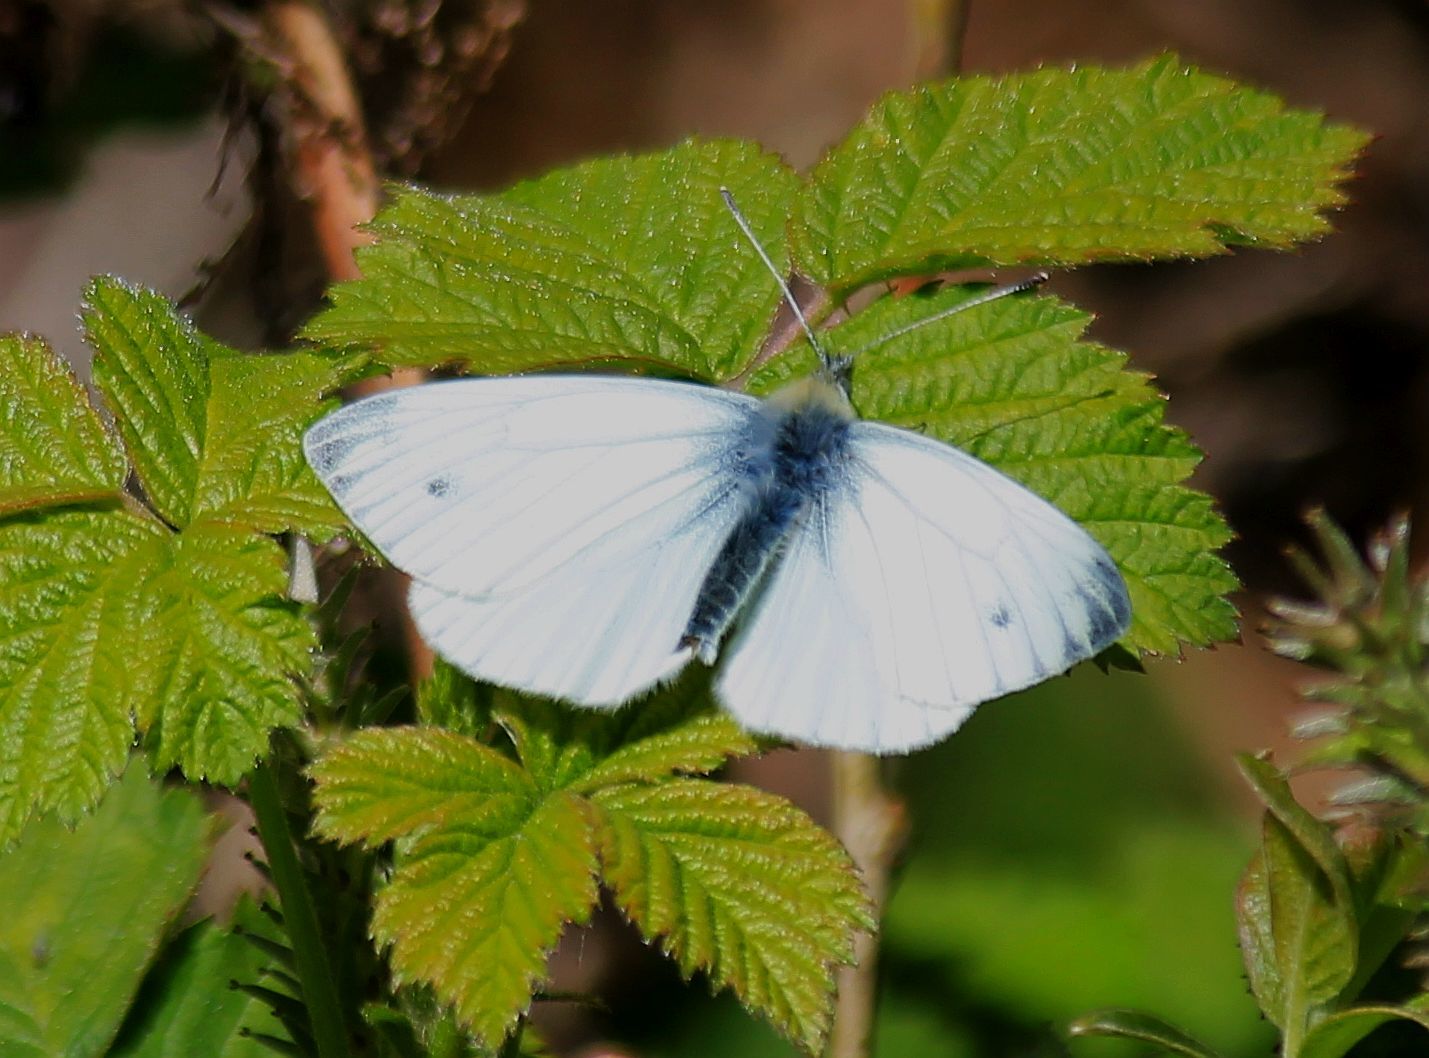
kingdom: Animalia
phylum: Arthropoda
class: Insecta
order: Lepidoptera
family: Pieridae
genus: Pieris
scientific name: Pieris napi
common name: Green-veined white
